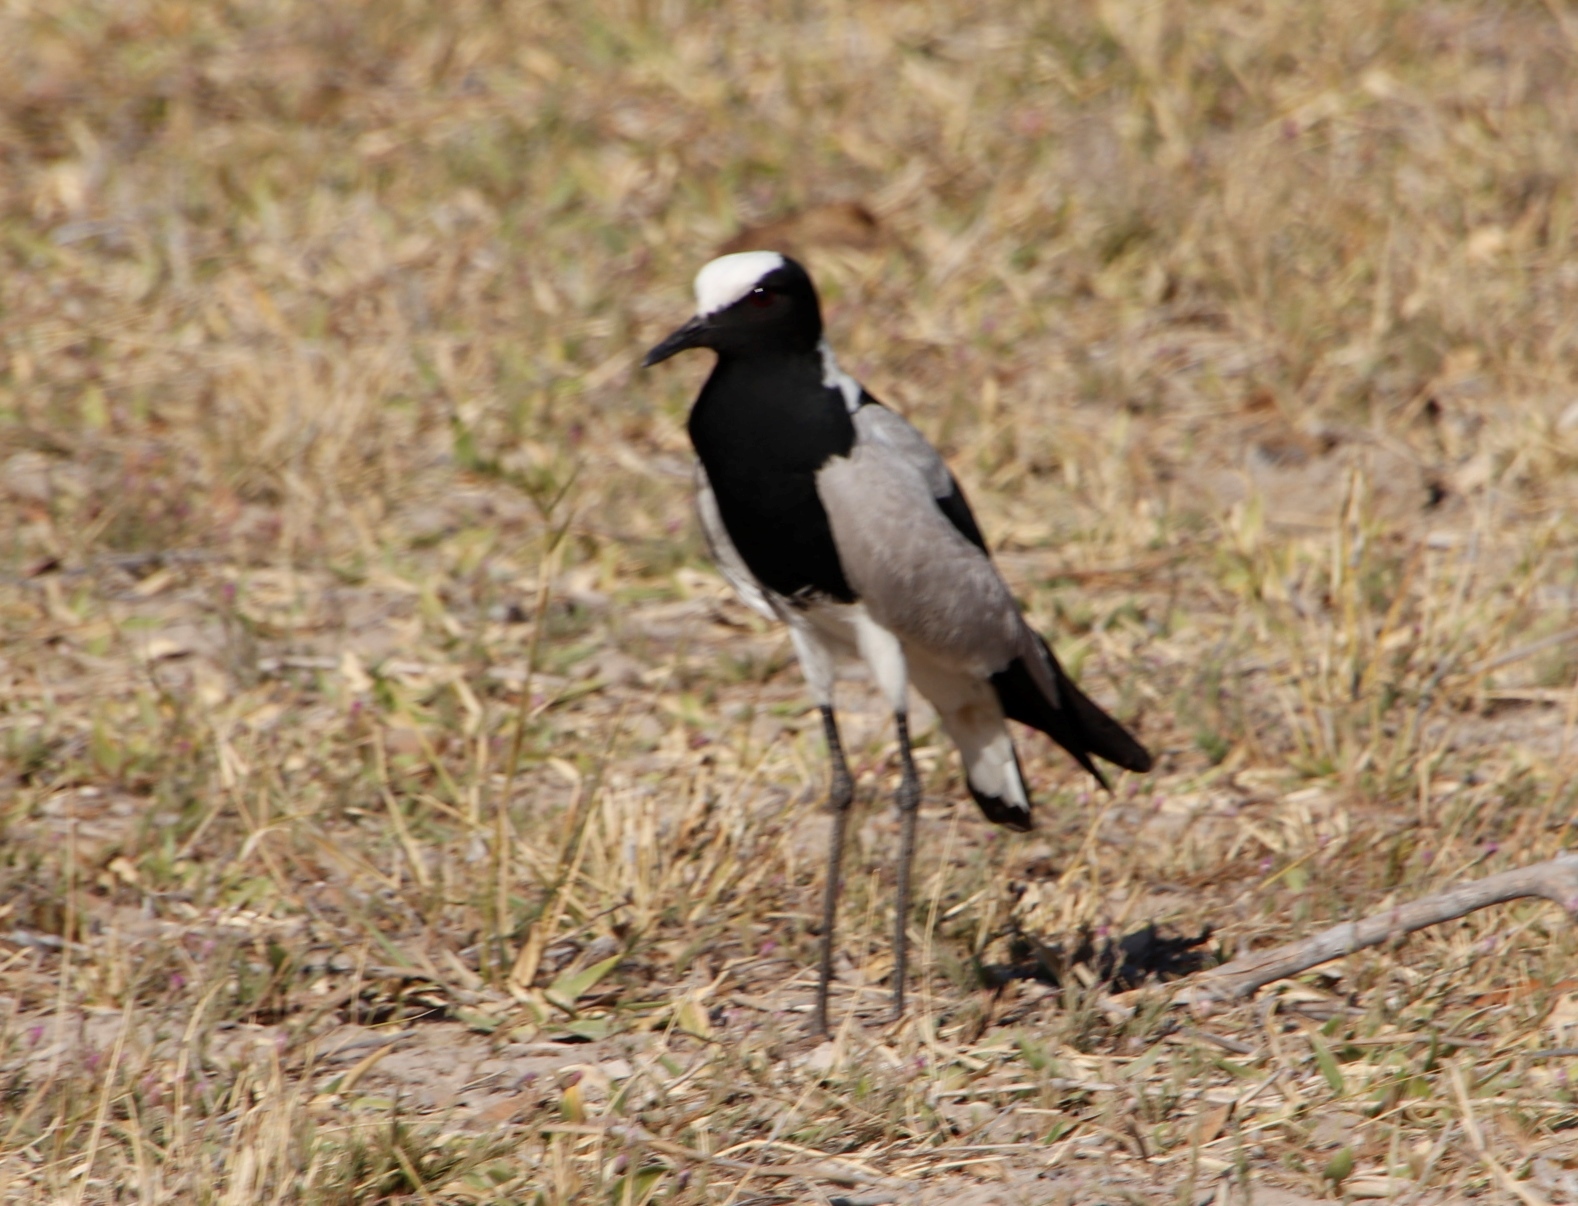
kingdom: Animalia
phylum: Chordata
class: Aves
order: Charadriiformes
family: Charadriidae
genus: Vanellus
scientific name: Vanellus armatus
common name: Blacksmith lapwing
